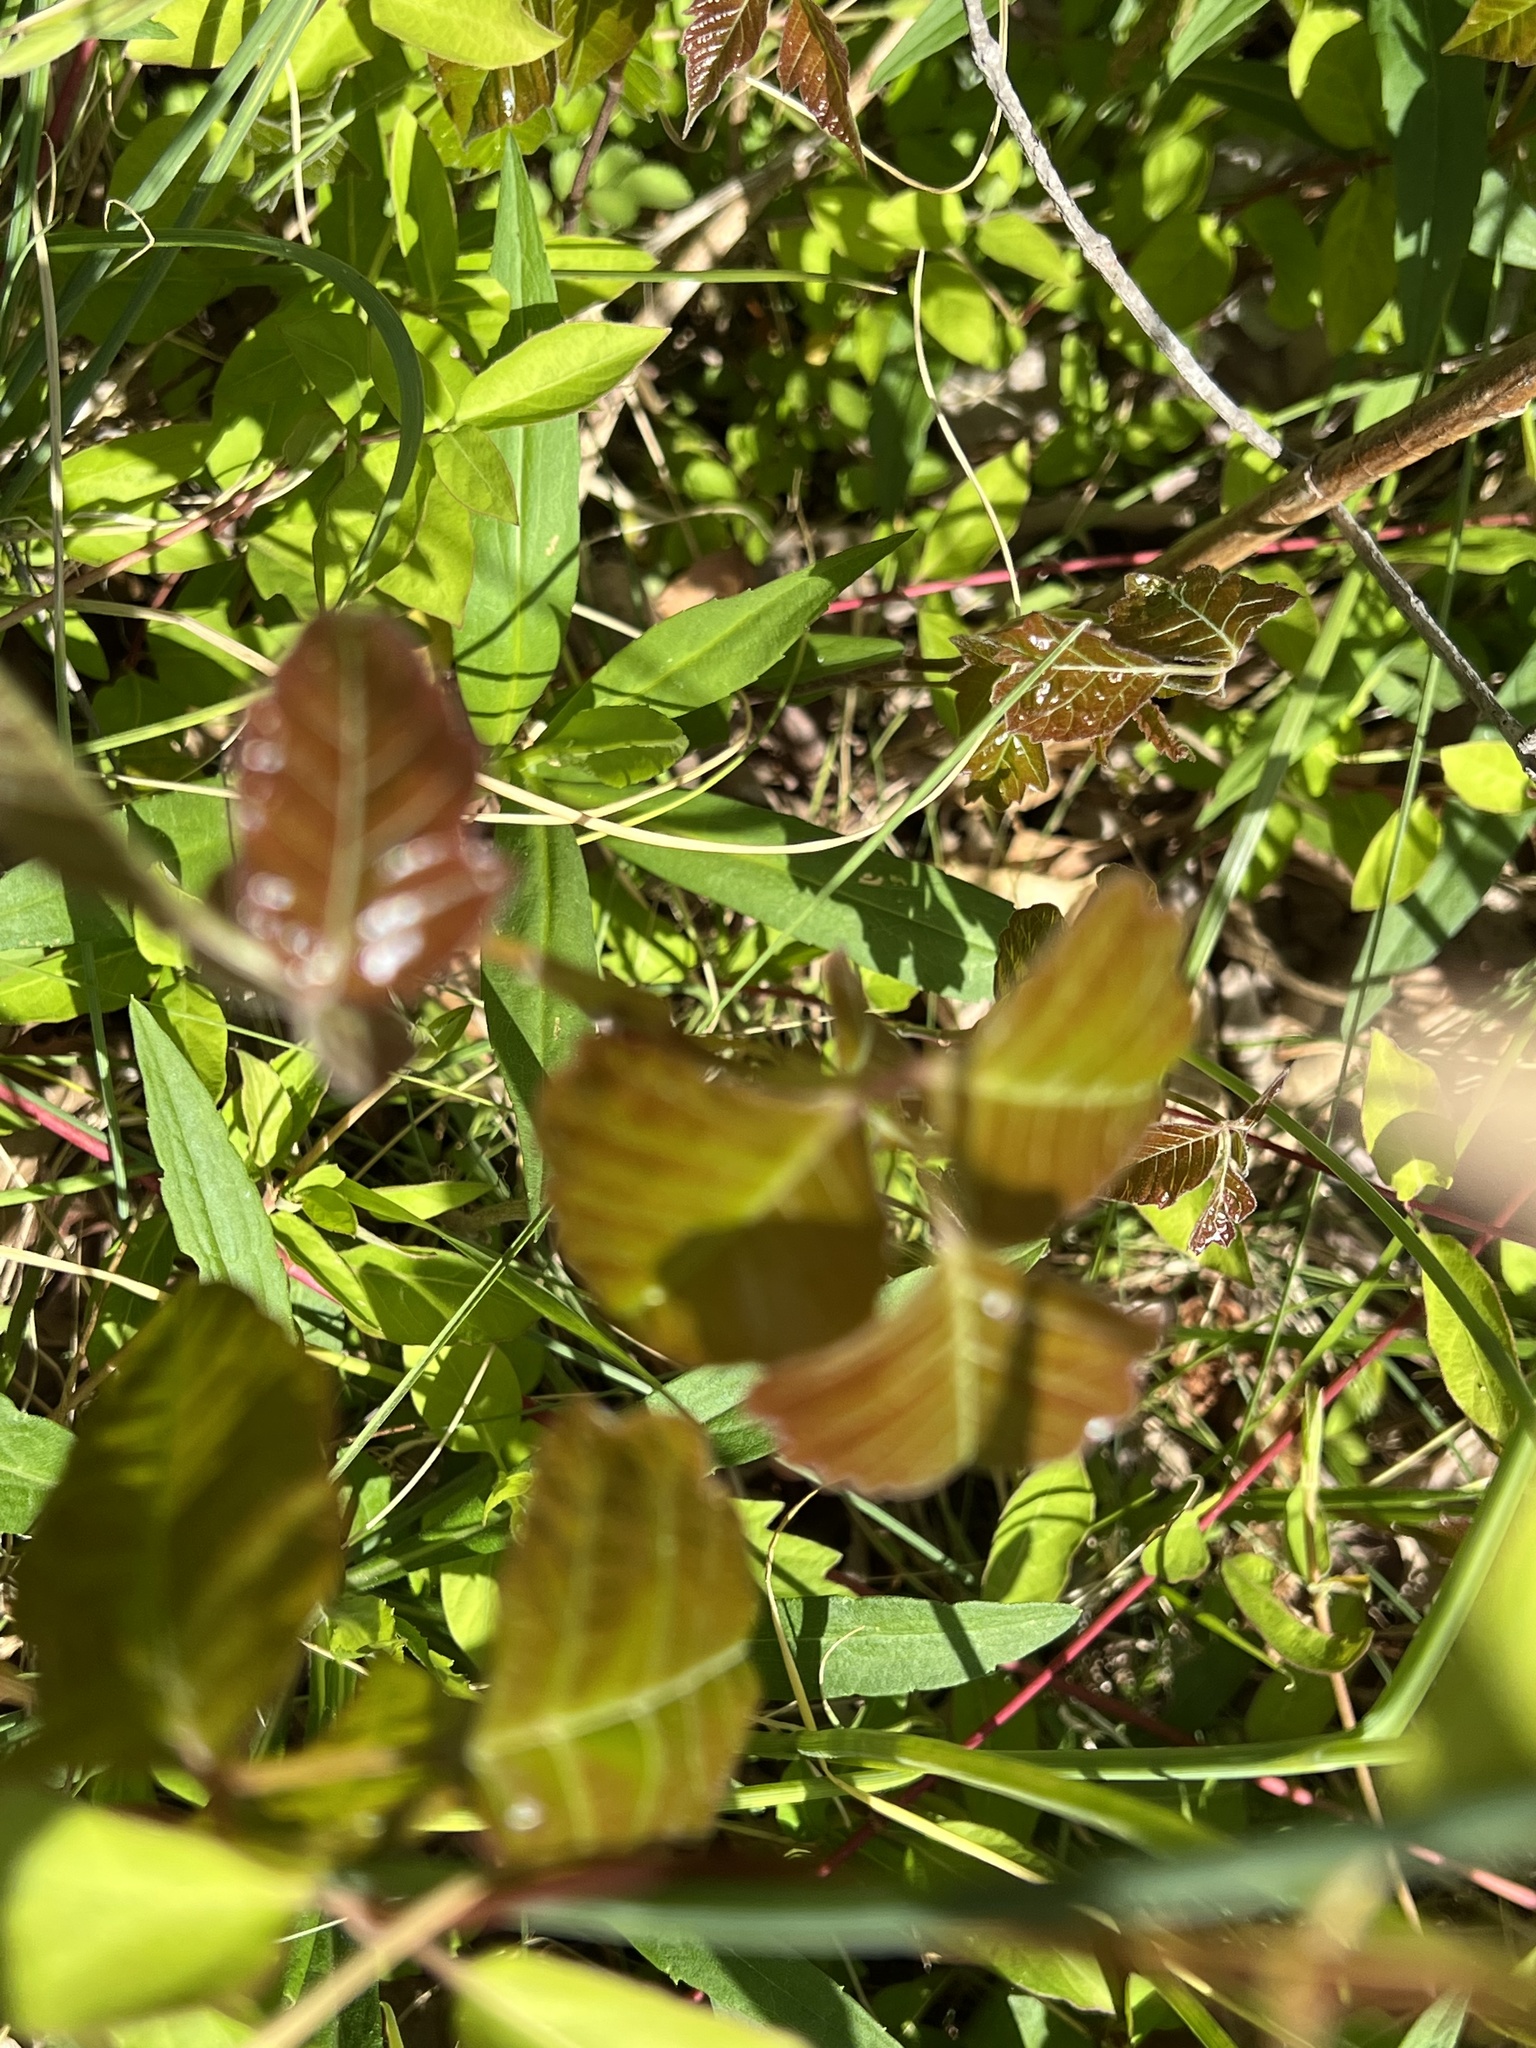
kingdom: Plantae
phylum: Tracheophyta
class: Magnoliopsida
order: Sapindales
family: Anacardiaceae
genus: Toxicodendron
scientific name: Toxicodendron radicans
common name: Poison ivy
